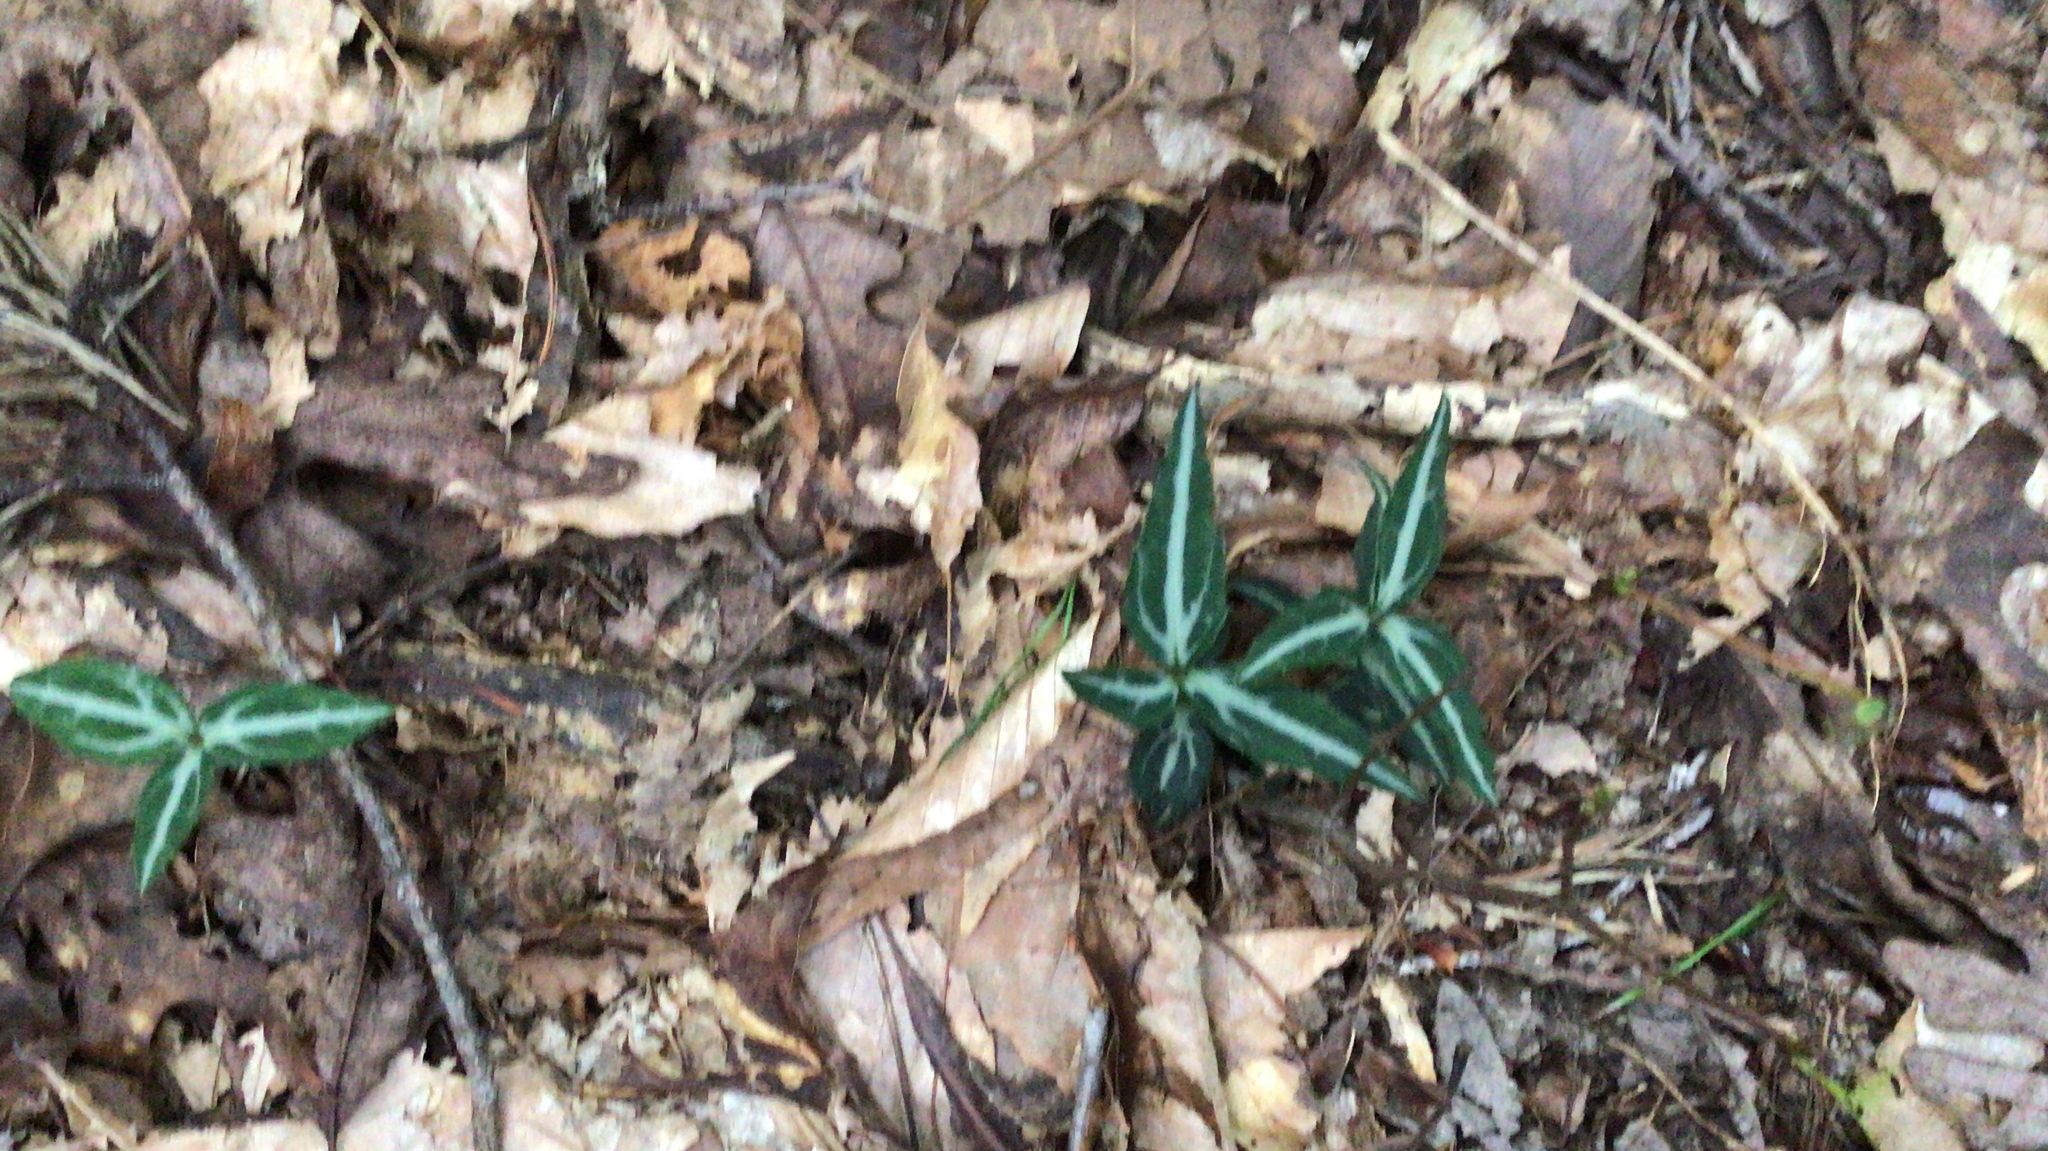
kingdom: Plantae
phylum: Tracheophyta
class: Magnoliopsida
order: Ericales
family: Ericaceae
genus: Chimaphila
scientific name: Chimaphila maculata
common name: Spotted pipsissewa
